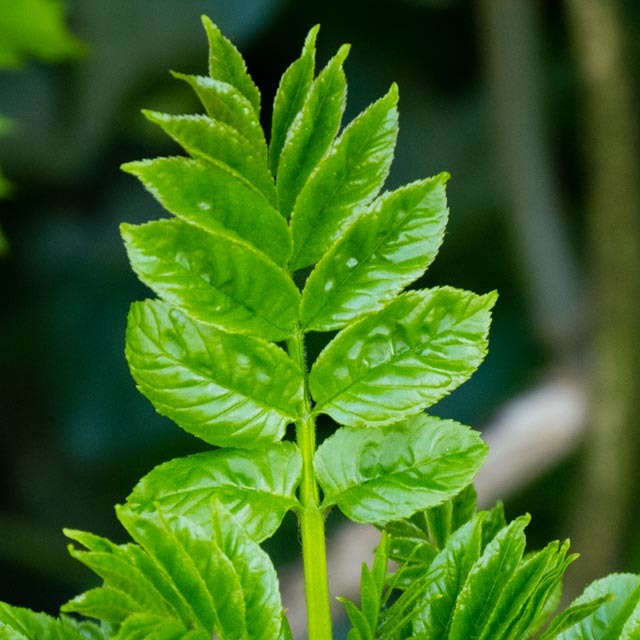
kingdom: Plantae
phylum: Tracheophyta
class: Magnoliopsida
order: Lamiales
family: Oleaceae
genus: Fraxinus
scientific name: Fraxinus excelsior
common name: European ash
